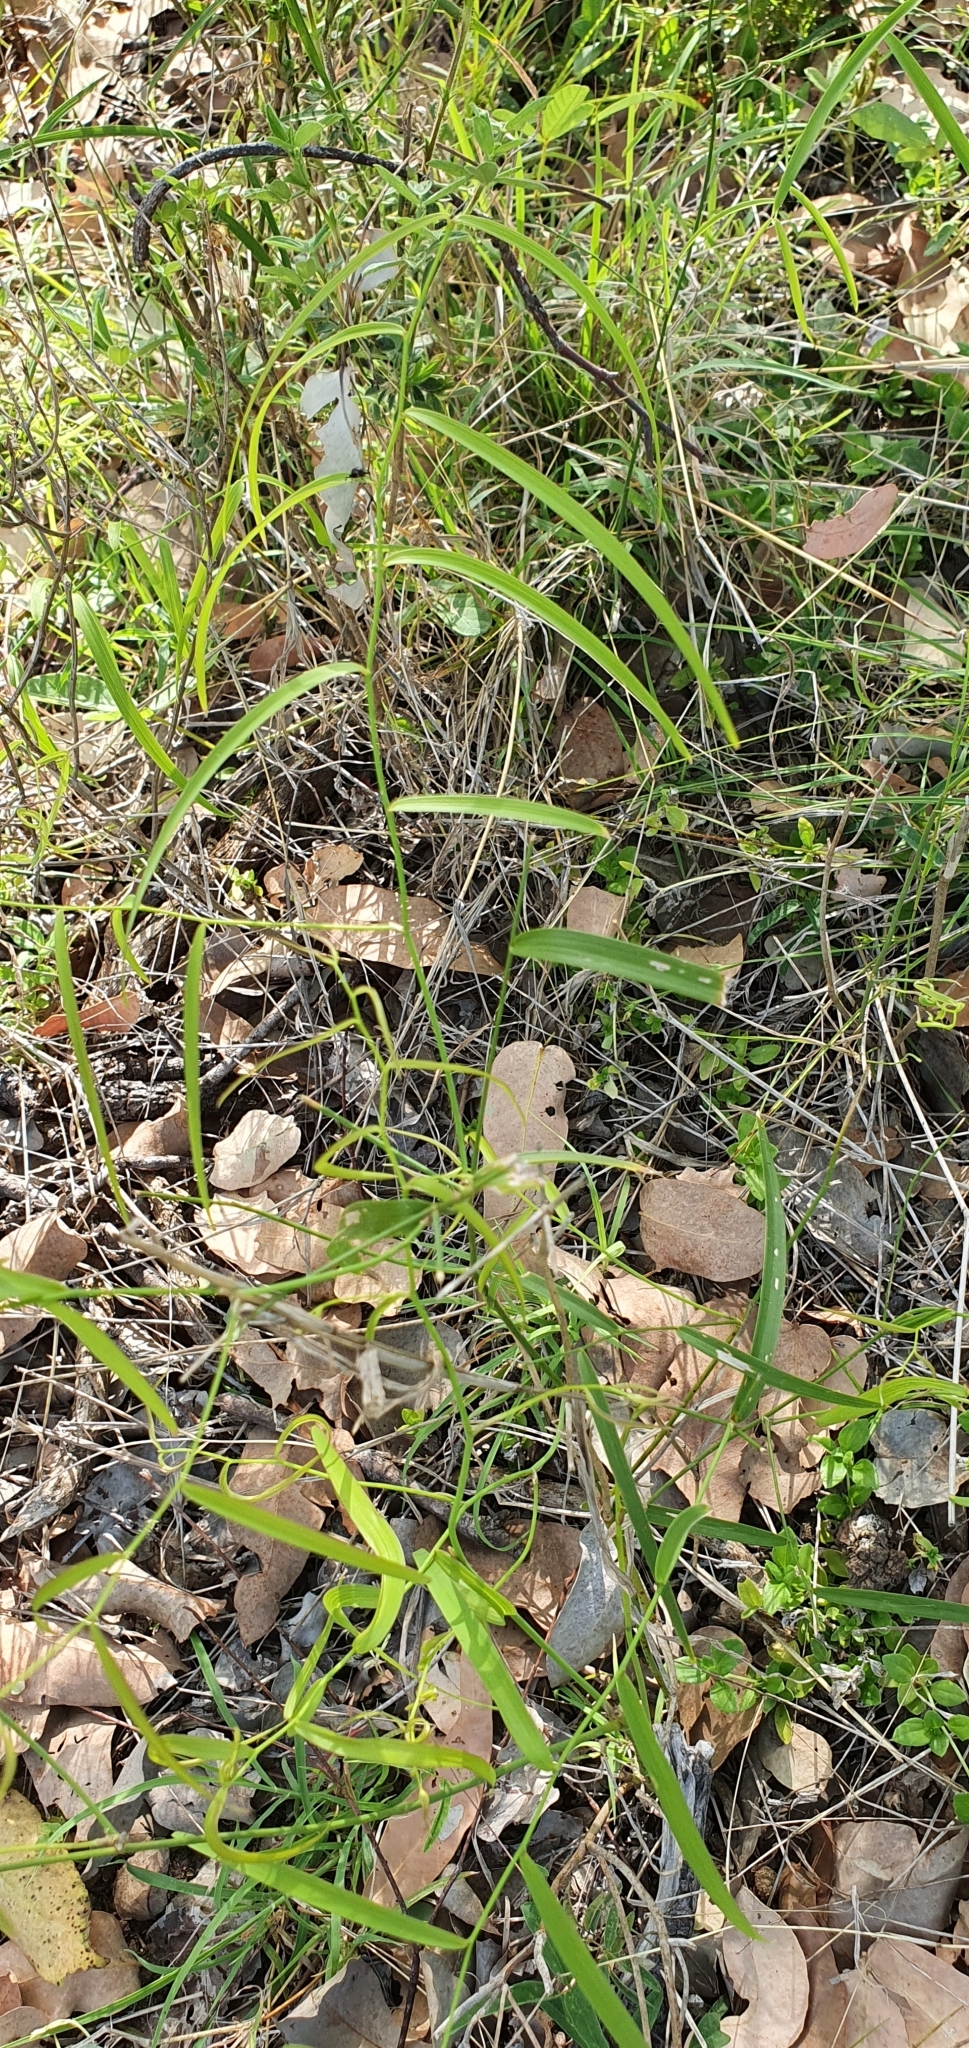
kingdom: Plantae
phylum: Tracheophyta
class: Liliopsida
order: Asparagales
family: Asparagaceae
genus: Eustrephus
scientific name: Eustrephus latifolius
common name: Orangevine
